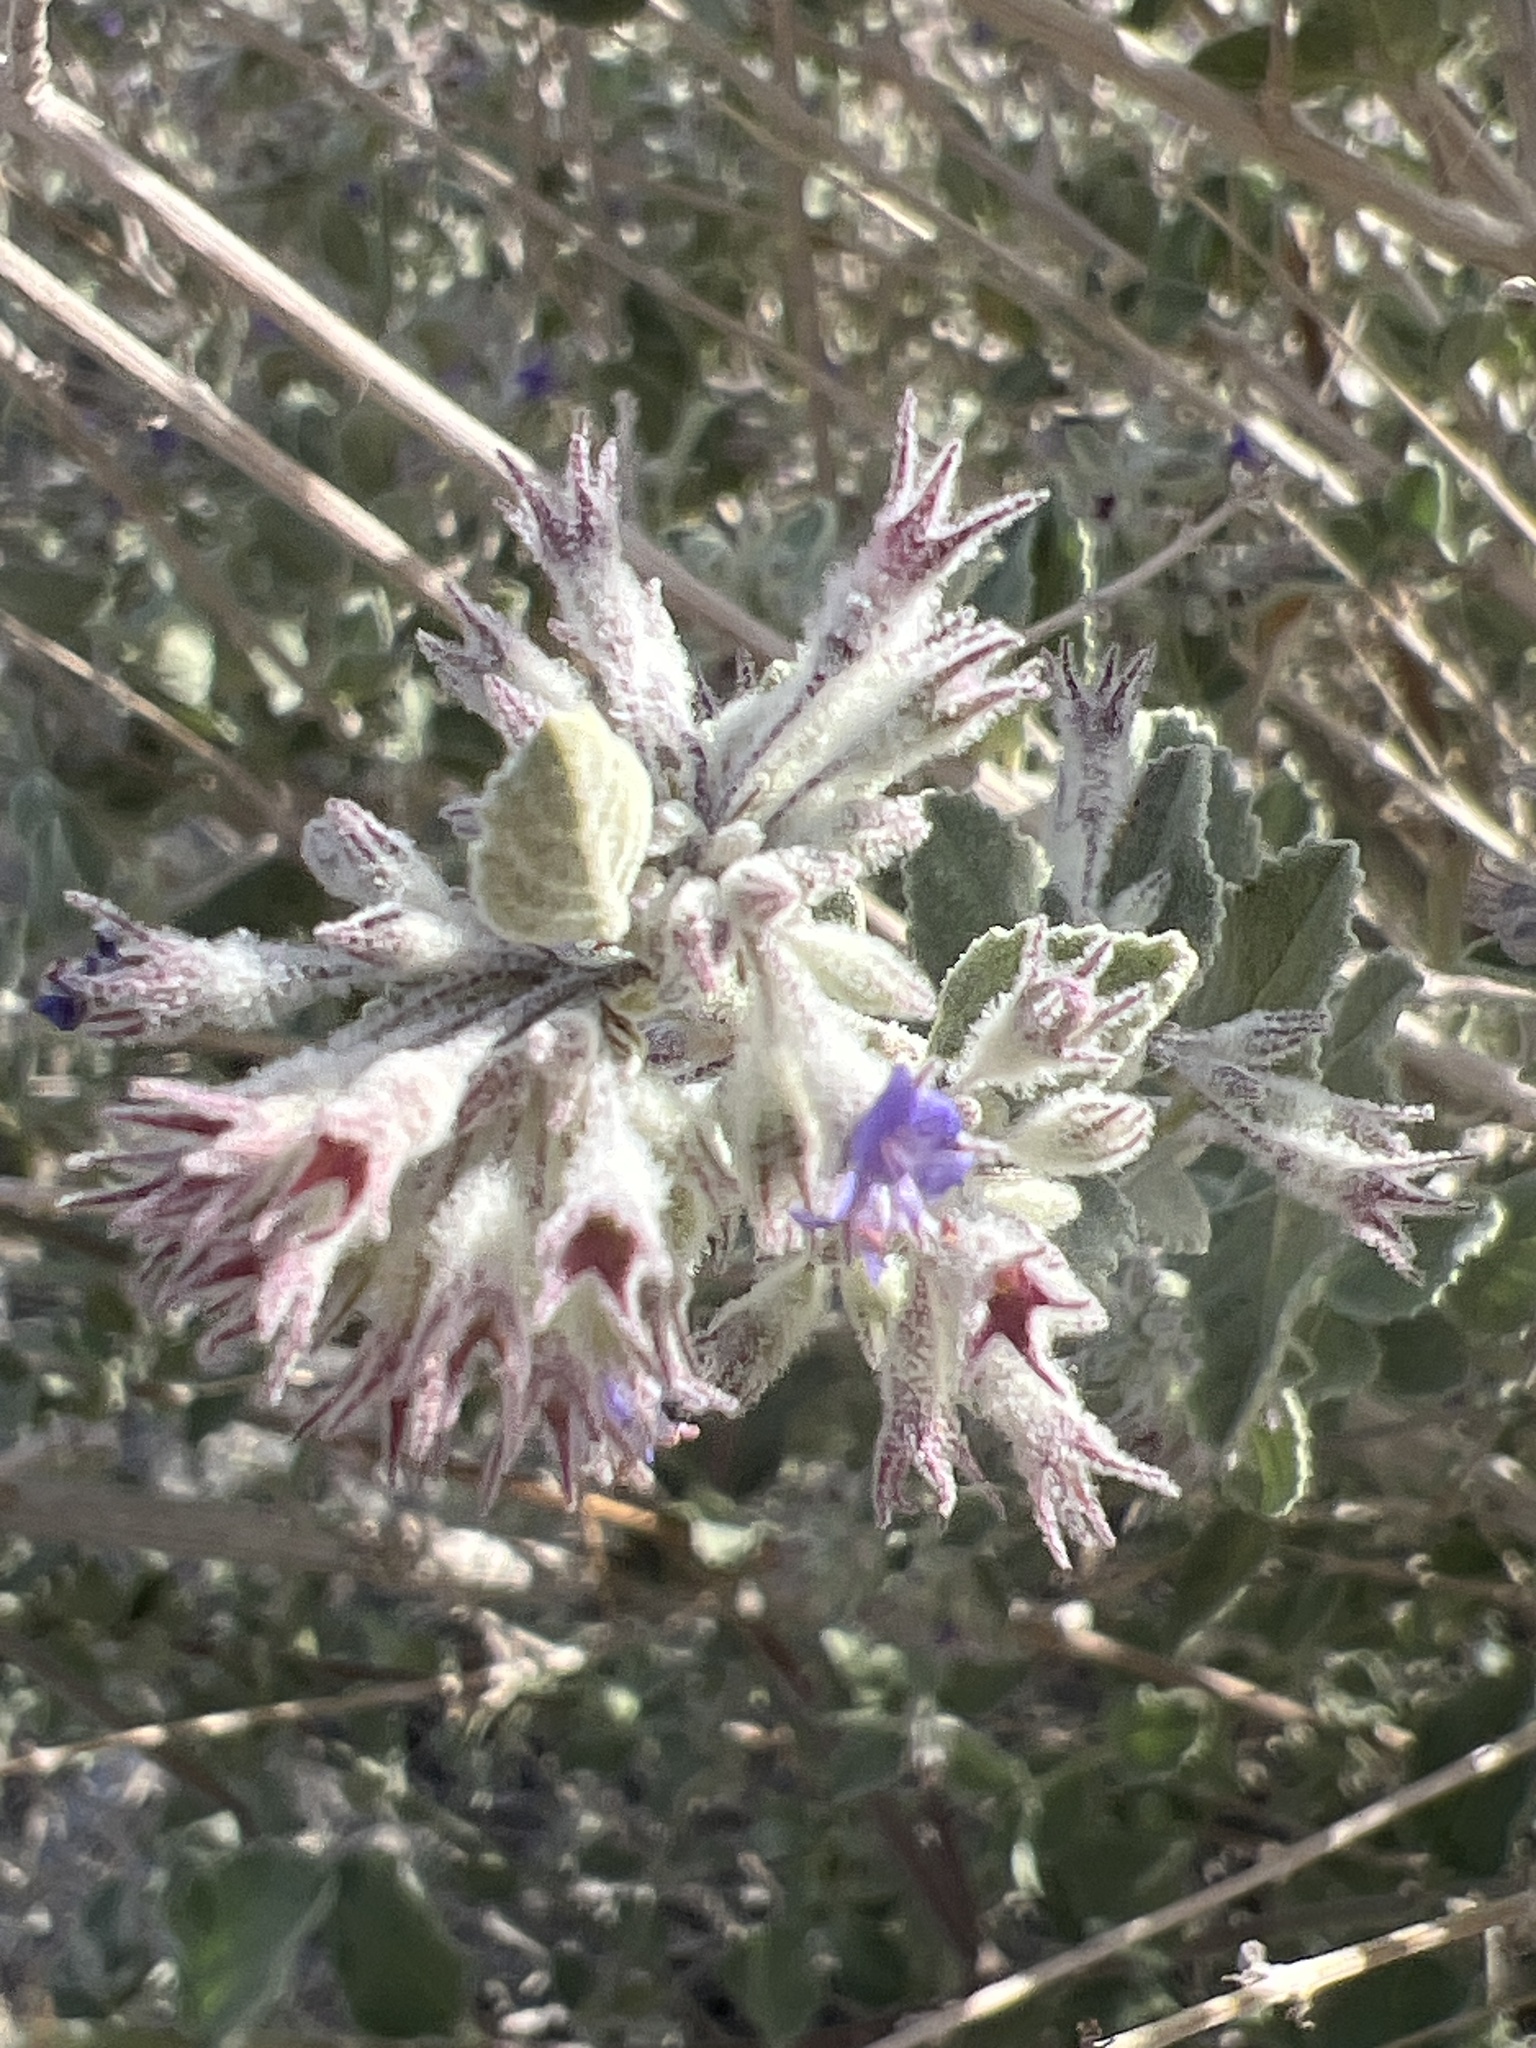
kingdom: Plantae
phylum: Tracheophyta
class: Magnoliopsida
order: Lamiales
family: Lamiaceae
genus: Condea
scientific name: Condea emoryi
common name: Chia
